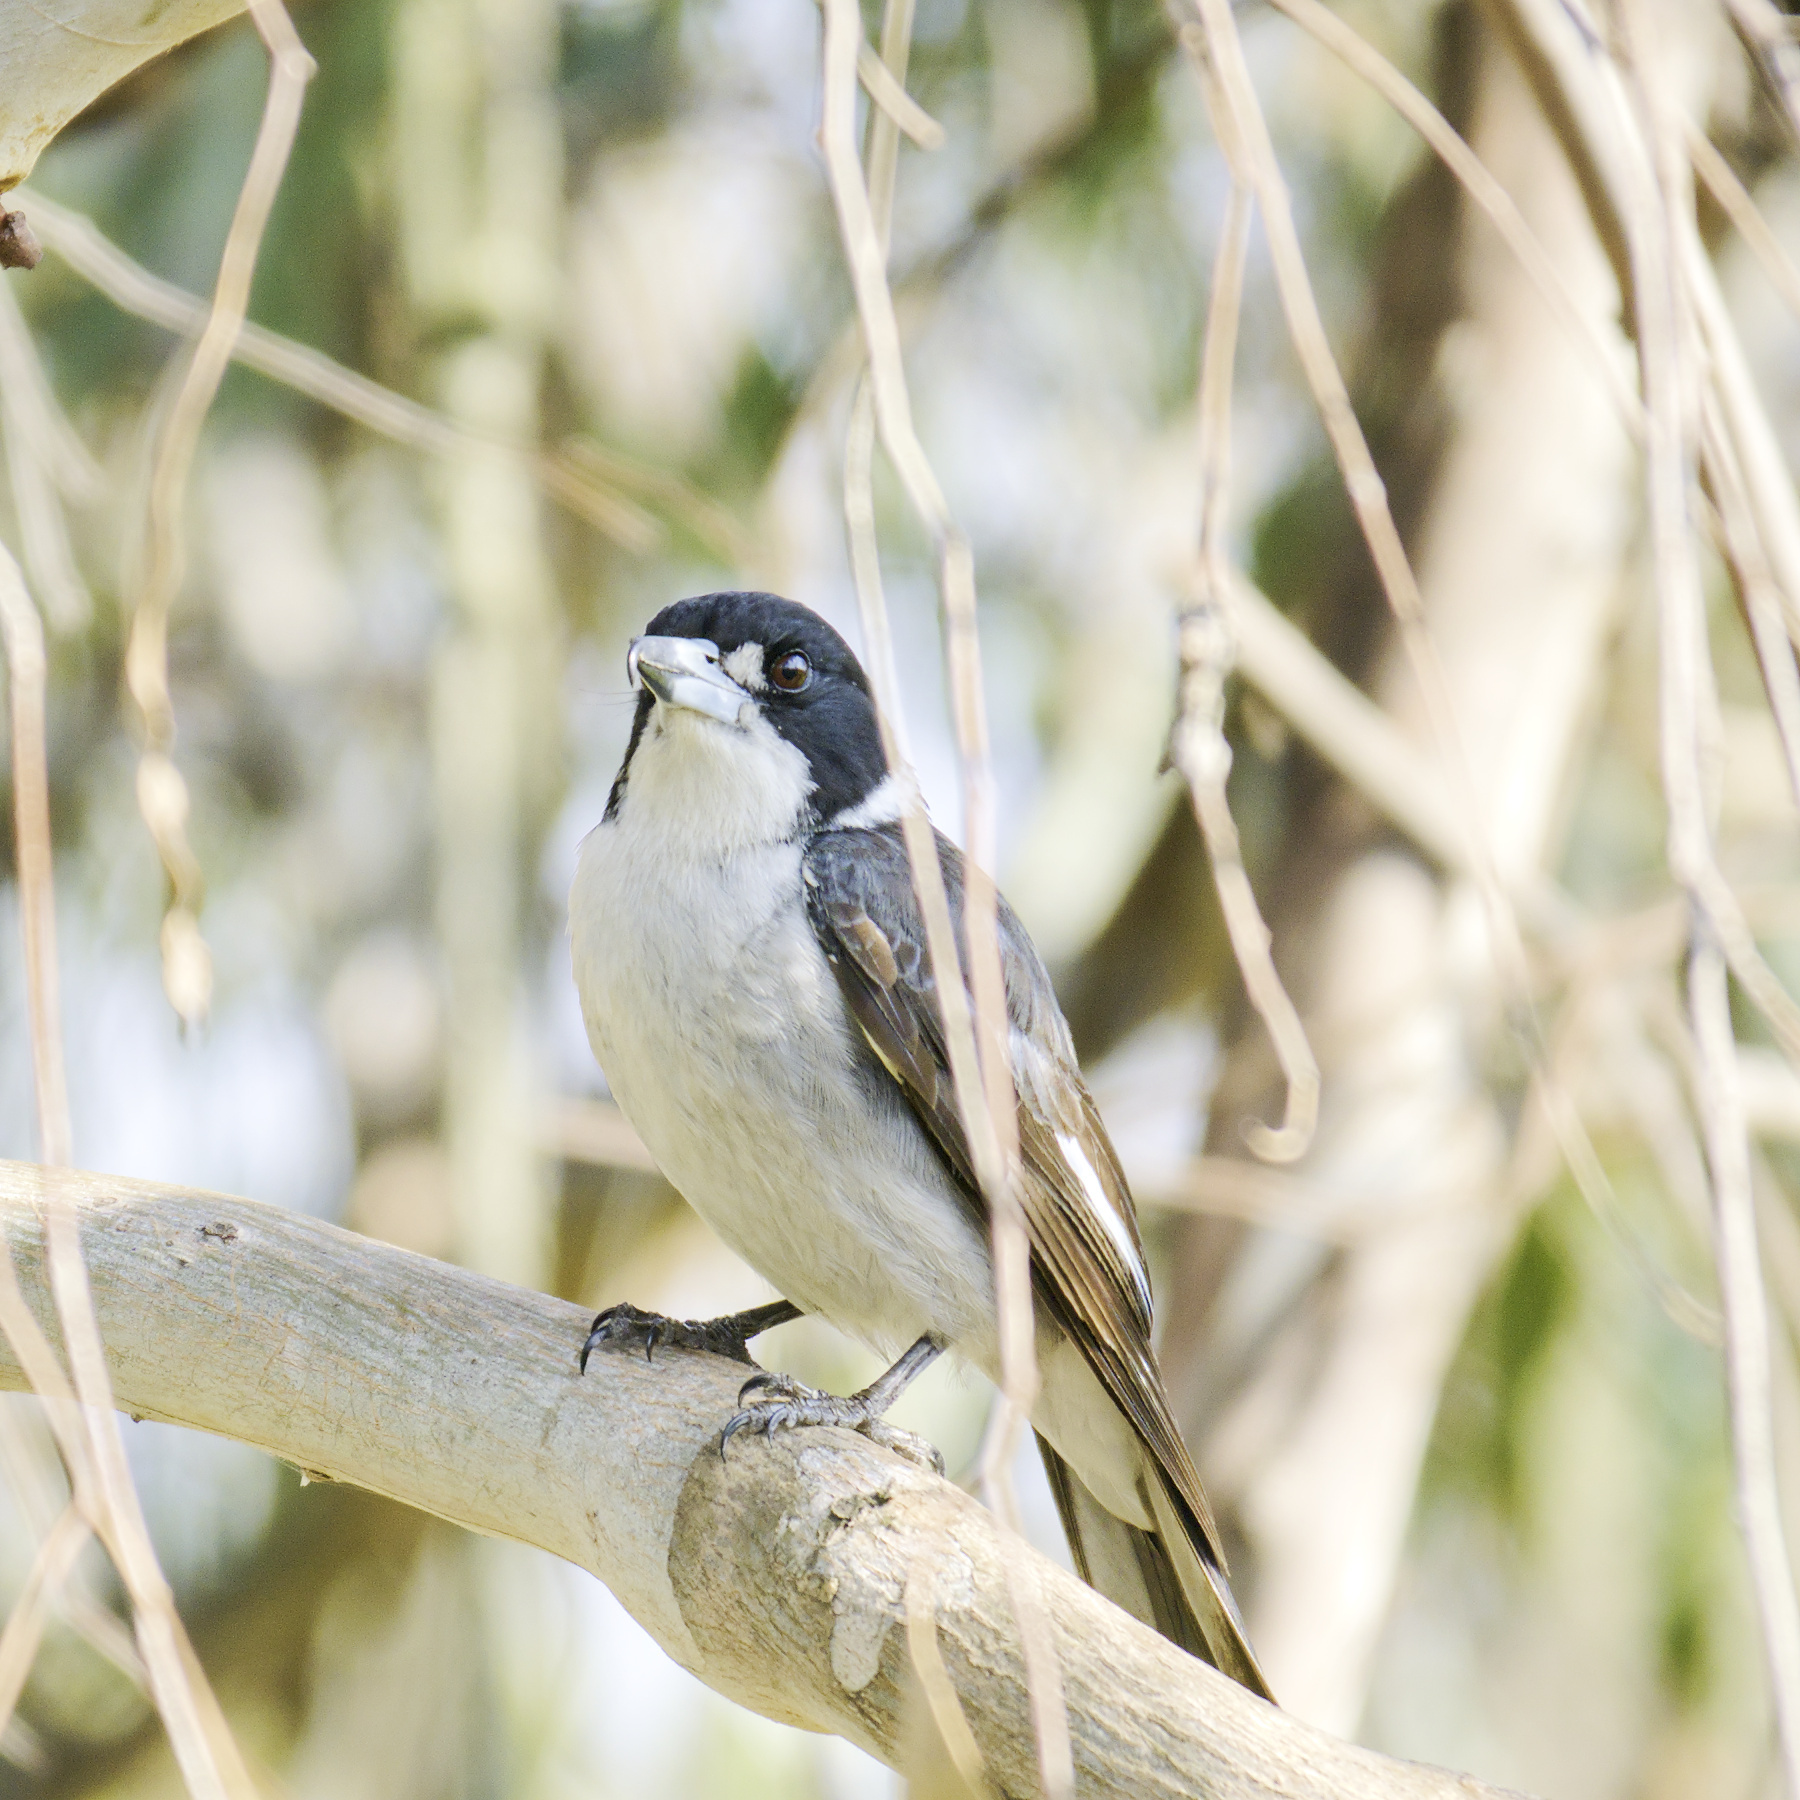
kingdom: Animalia
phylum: Chordata
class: Aves
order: Passeriformes
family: Cracticidae
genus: Cracticus
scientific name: Cracticus torquatus
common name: Grey butcherbird
